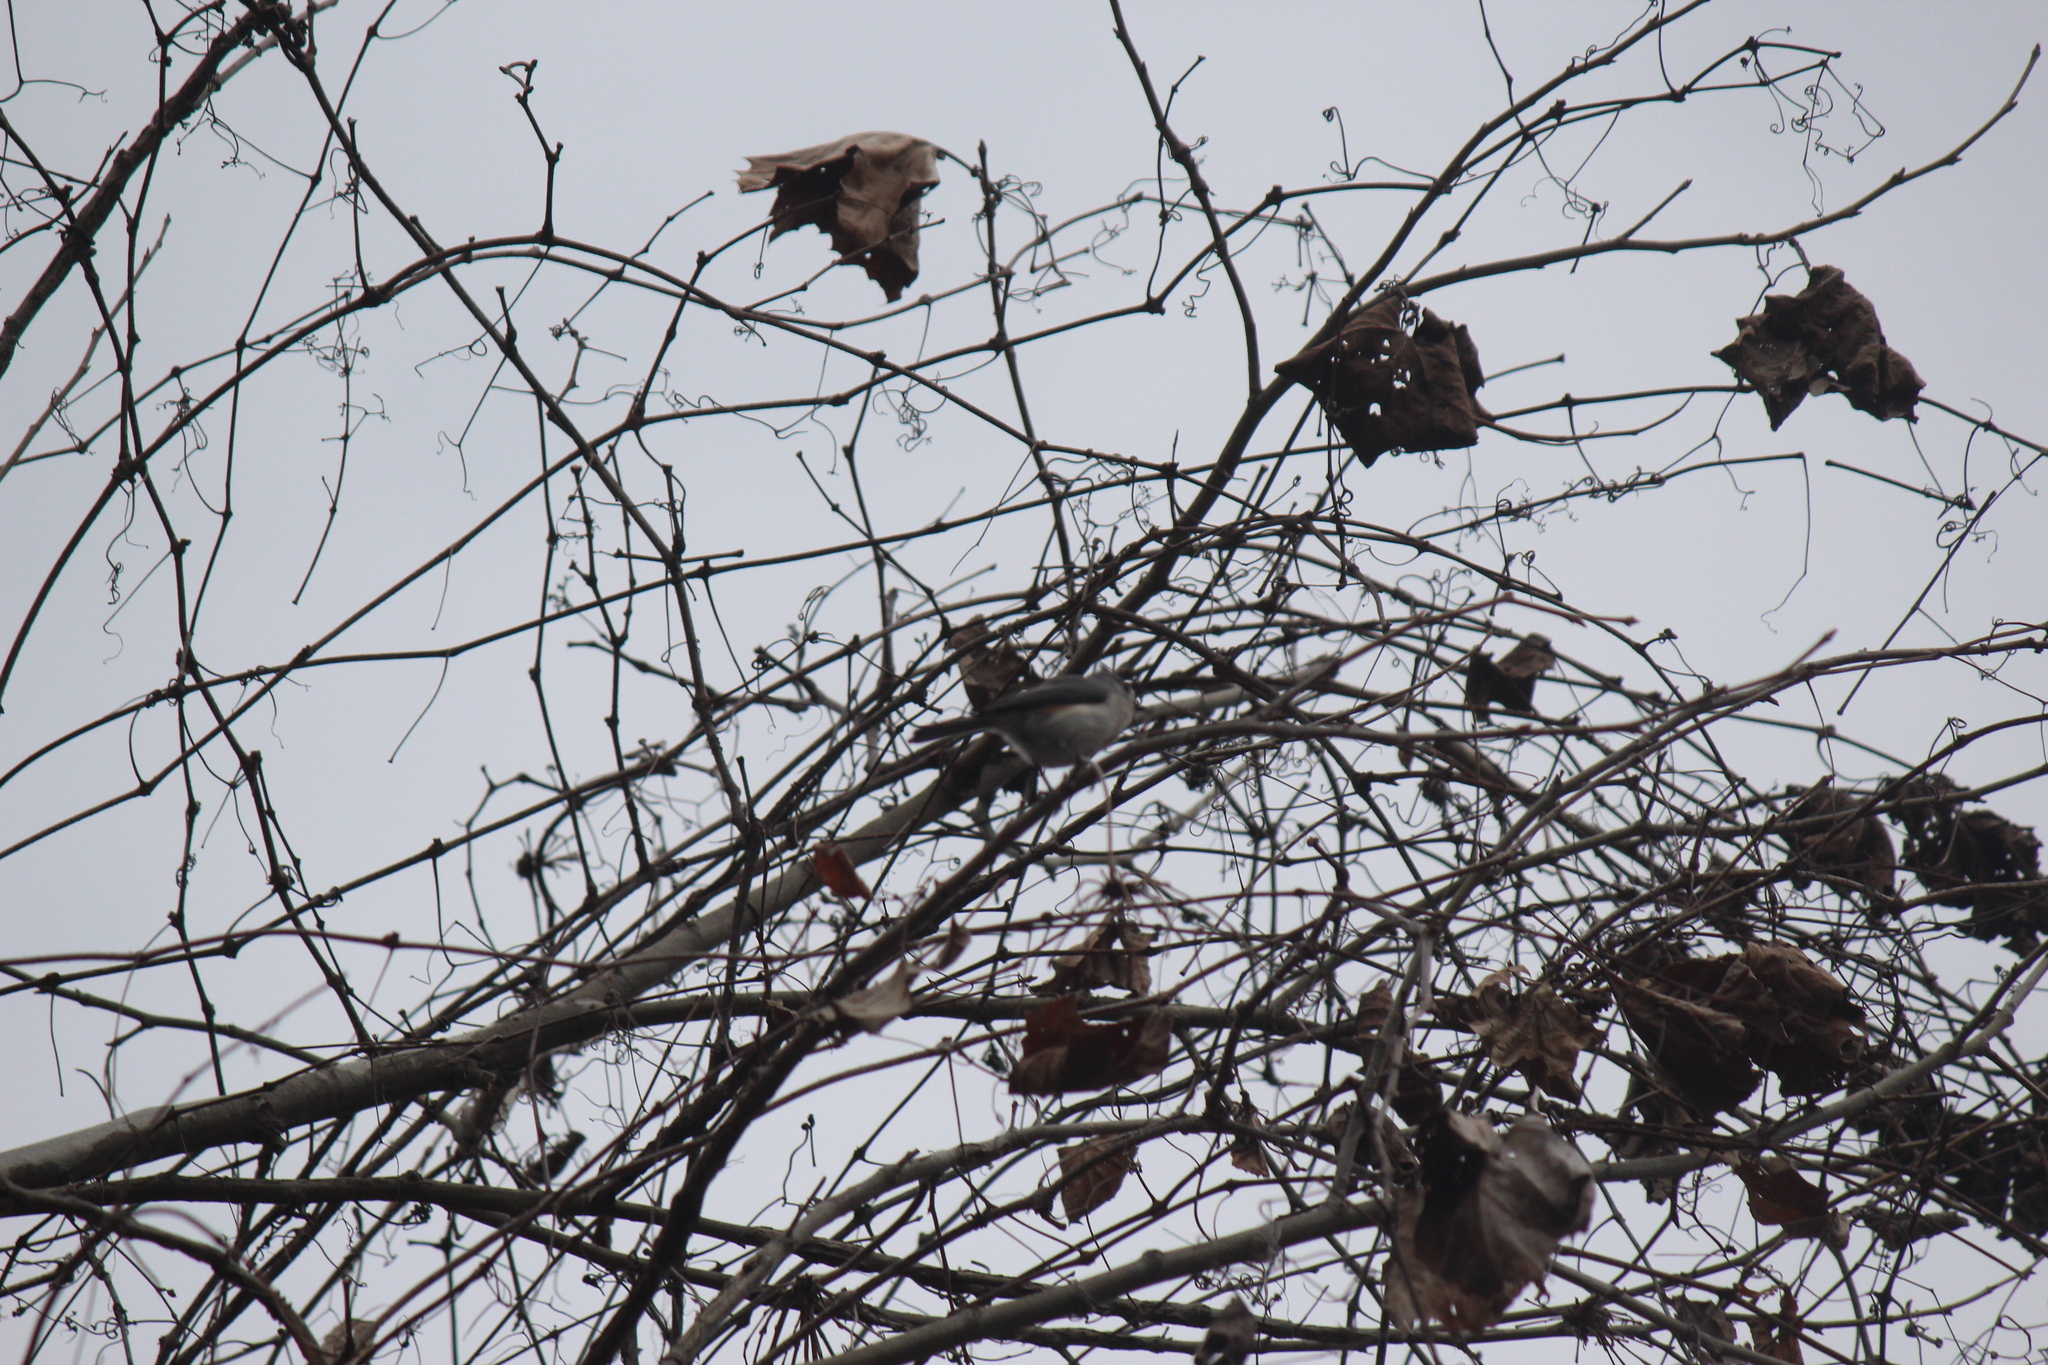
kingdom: Animalia
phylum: Chordata
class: Aves
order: Passeriformes
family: Paridae
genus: Baeolophus
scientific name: Baeolophus bicolor
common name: Tufted titmouse
